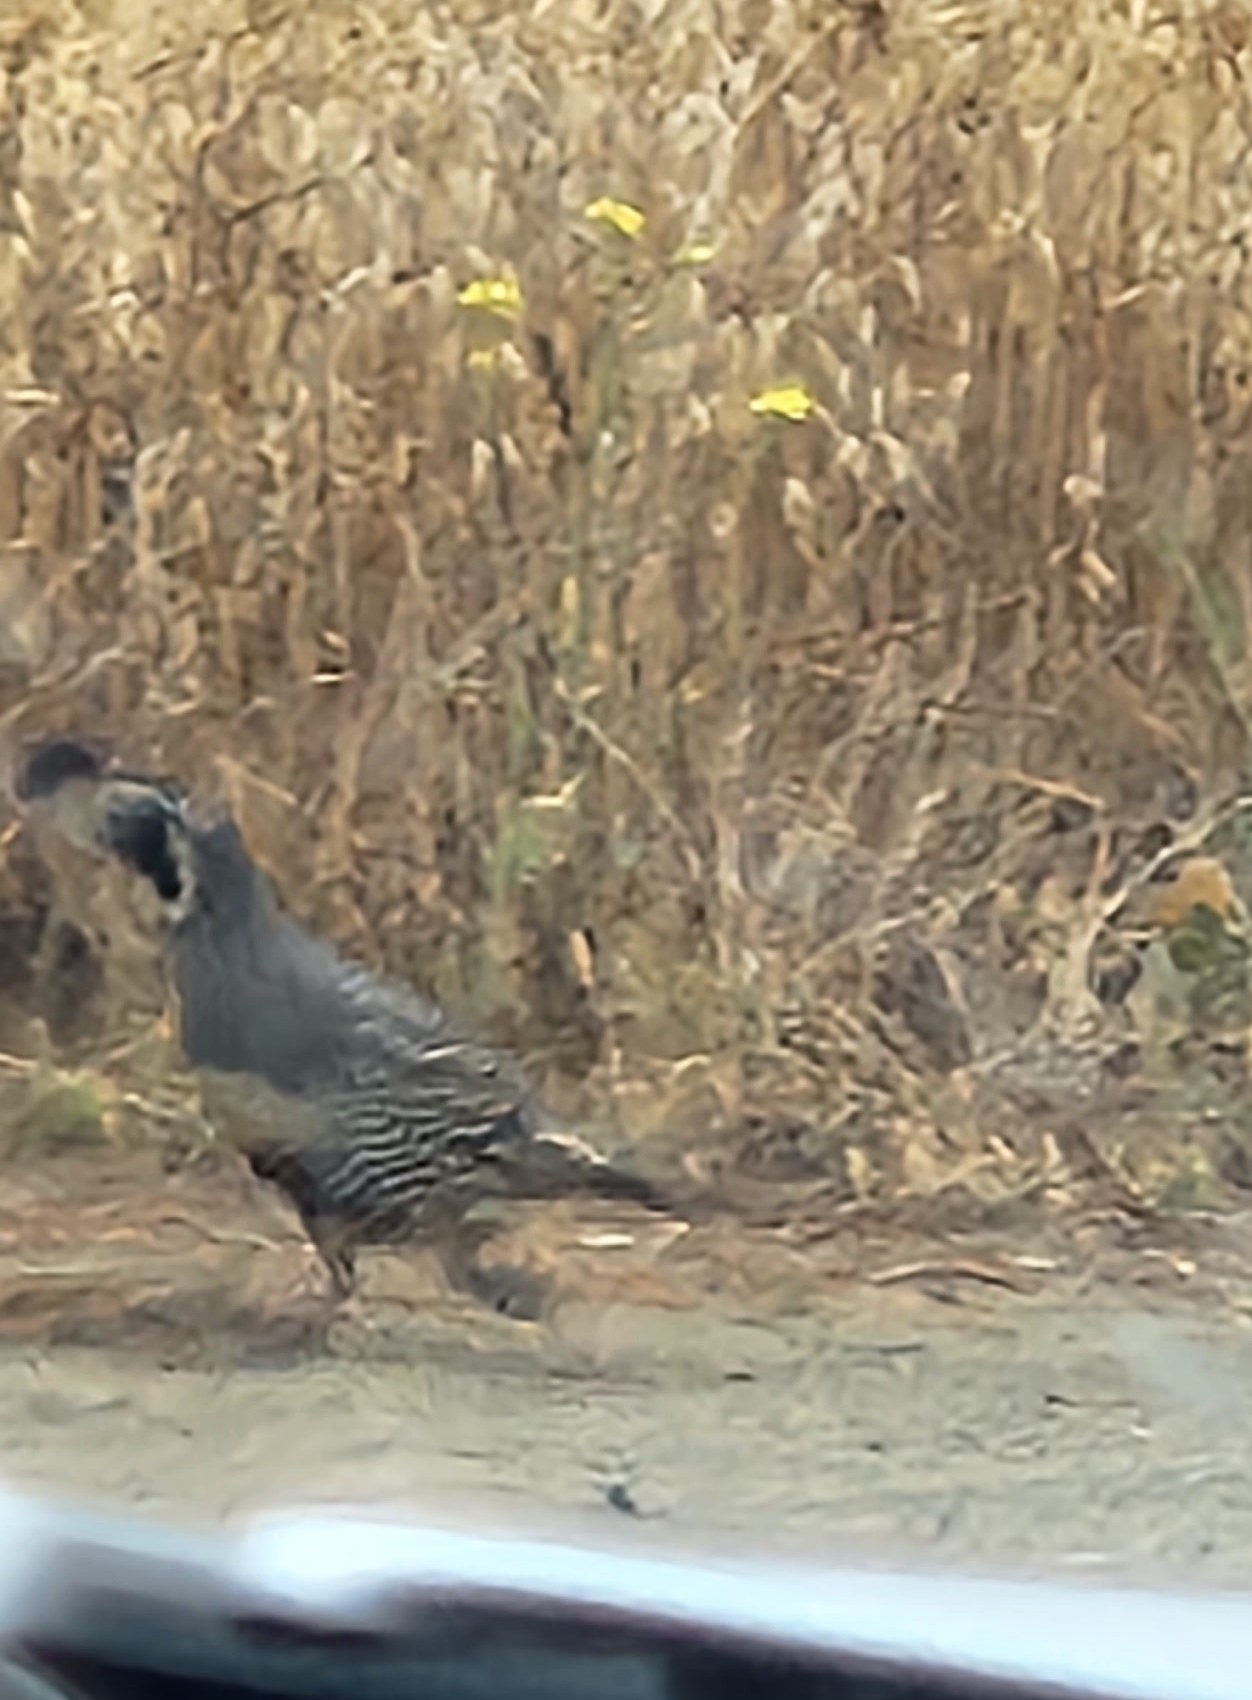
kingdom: Animalia
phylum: Chordata
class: Aves
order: Galliformes
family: Odontophoridae
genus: Callipepla
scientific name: Callipepla californica
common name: California quail
